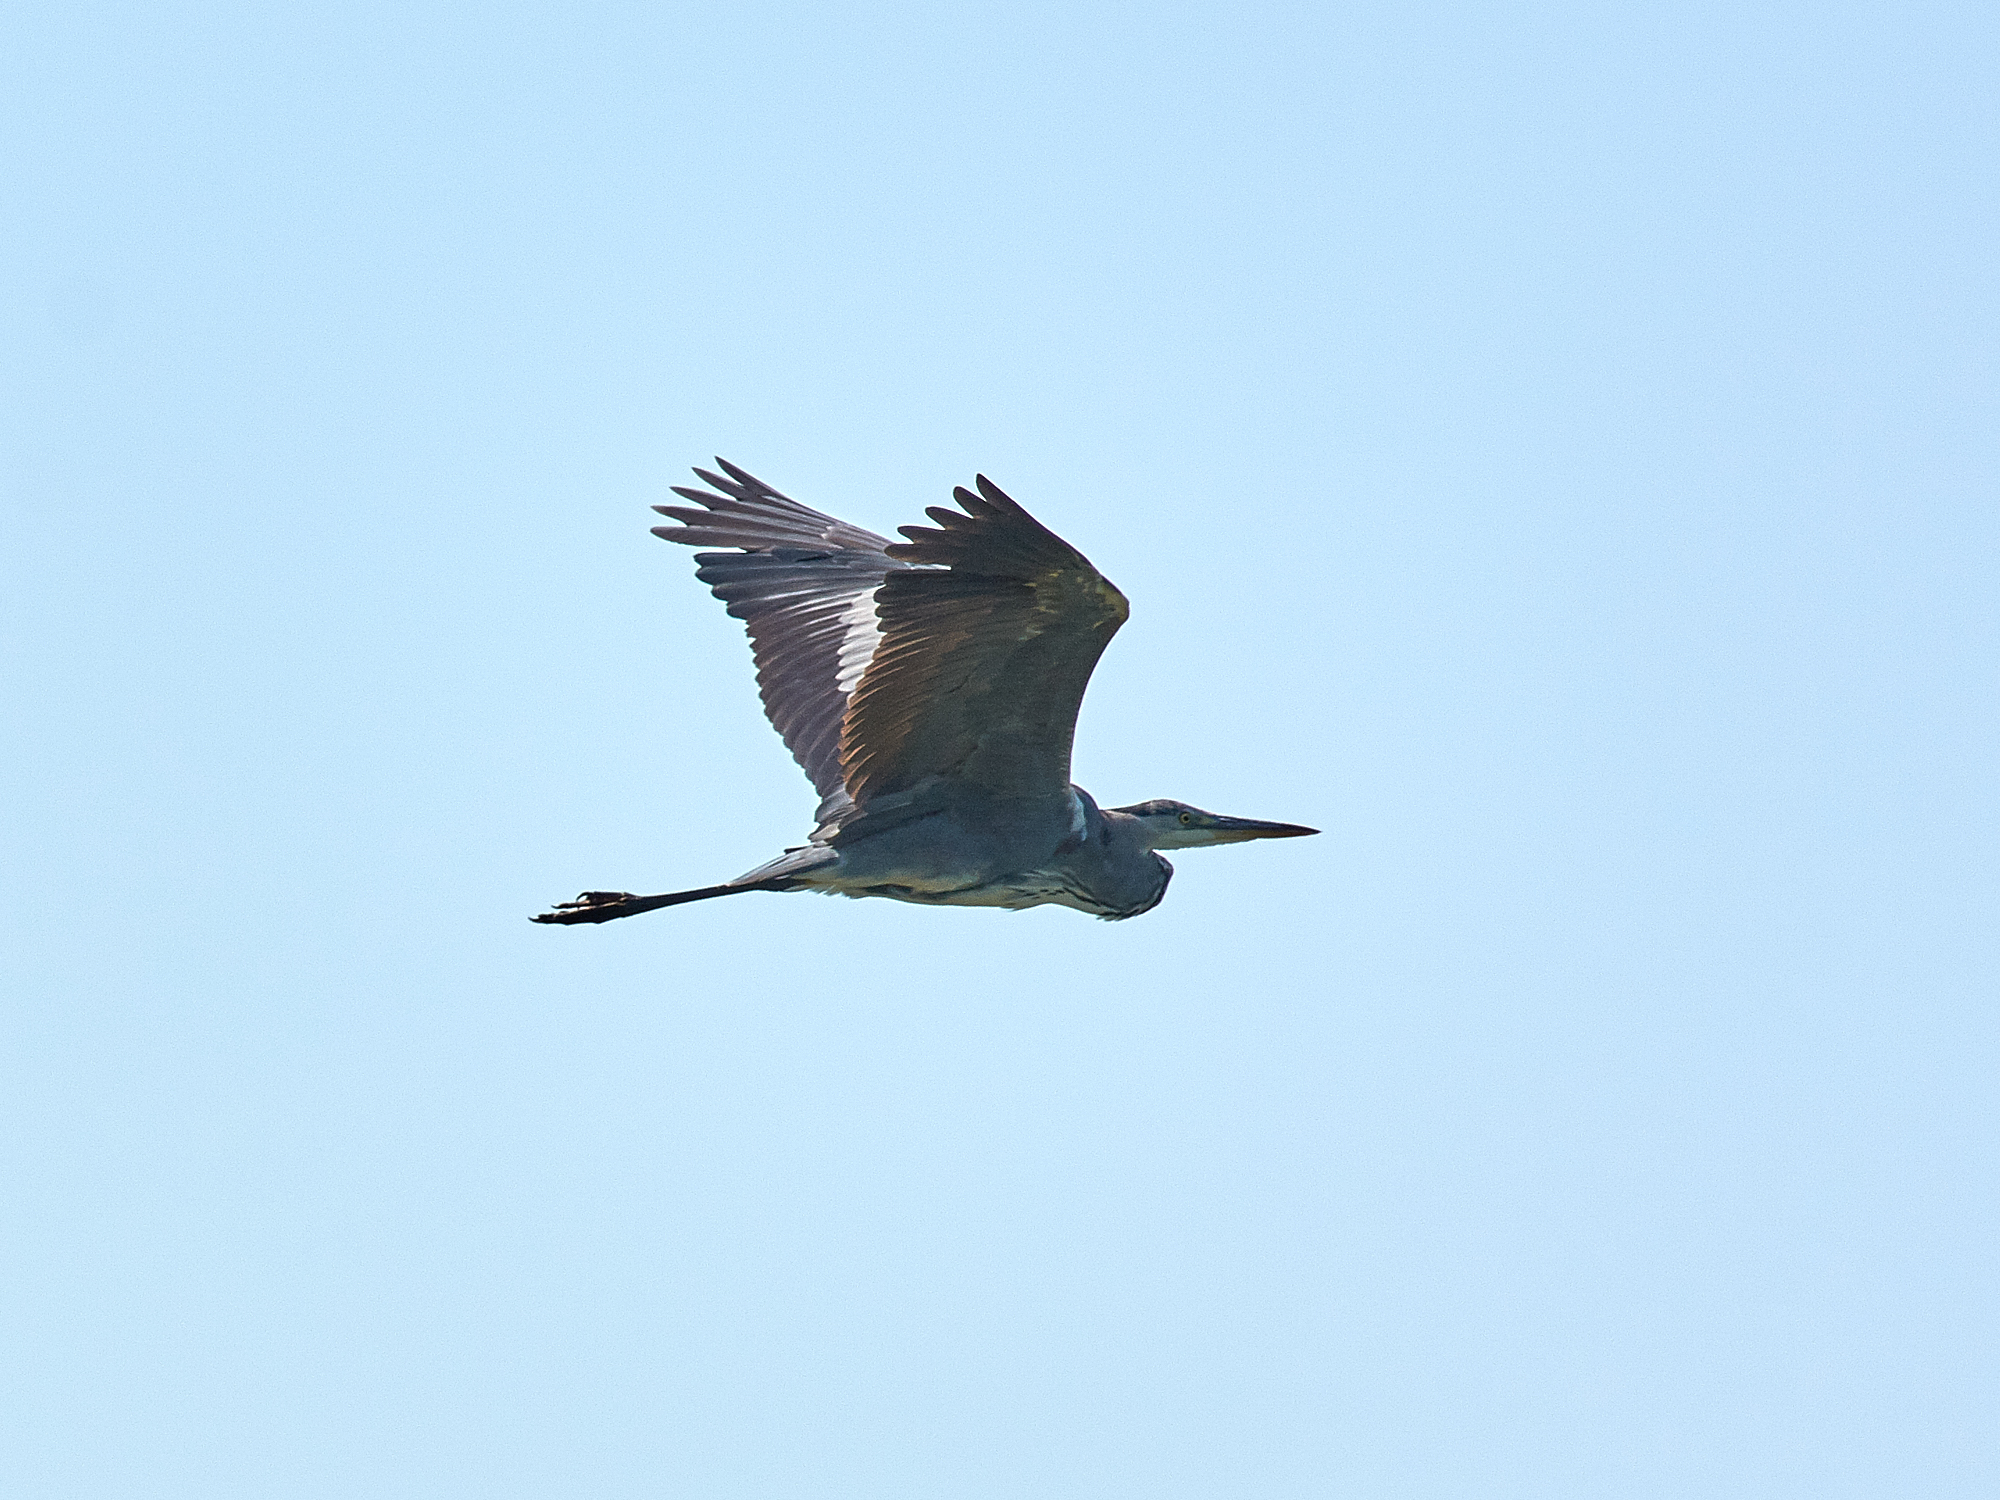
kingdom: Animalia
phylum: Chordata
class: Aves
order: Pelecaniformes
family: Ardeidae
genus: Ardea
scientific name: Ardea cinerea
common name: Grey heron
